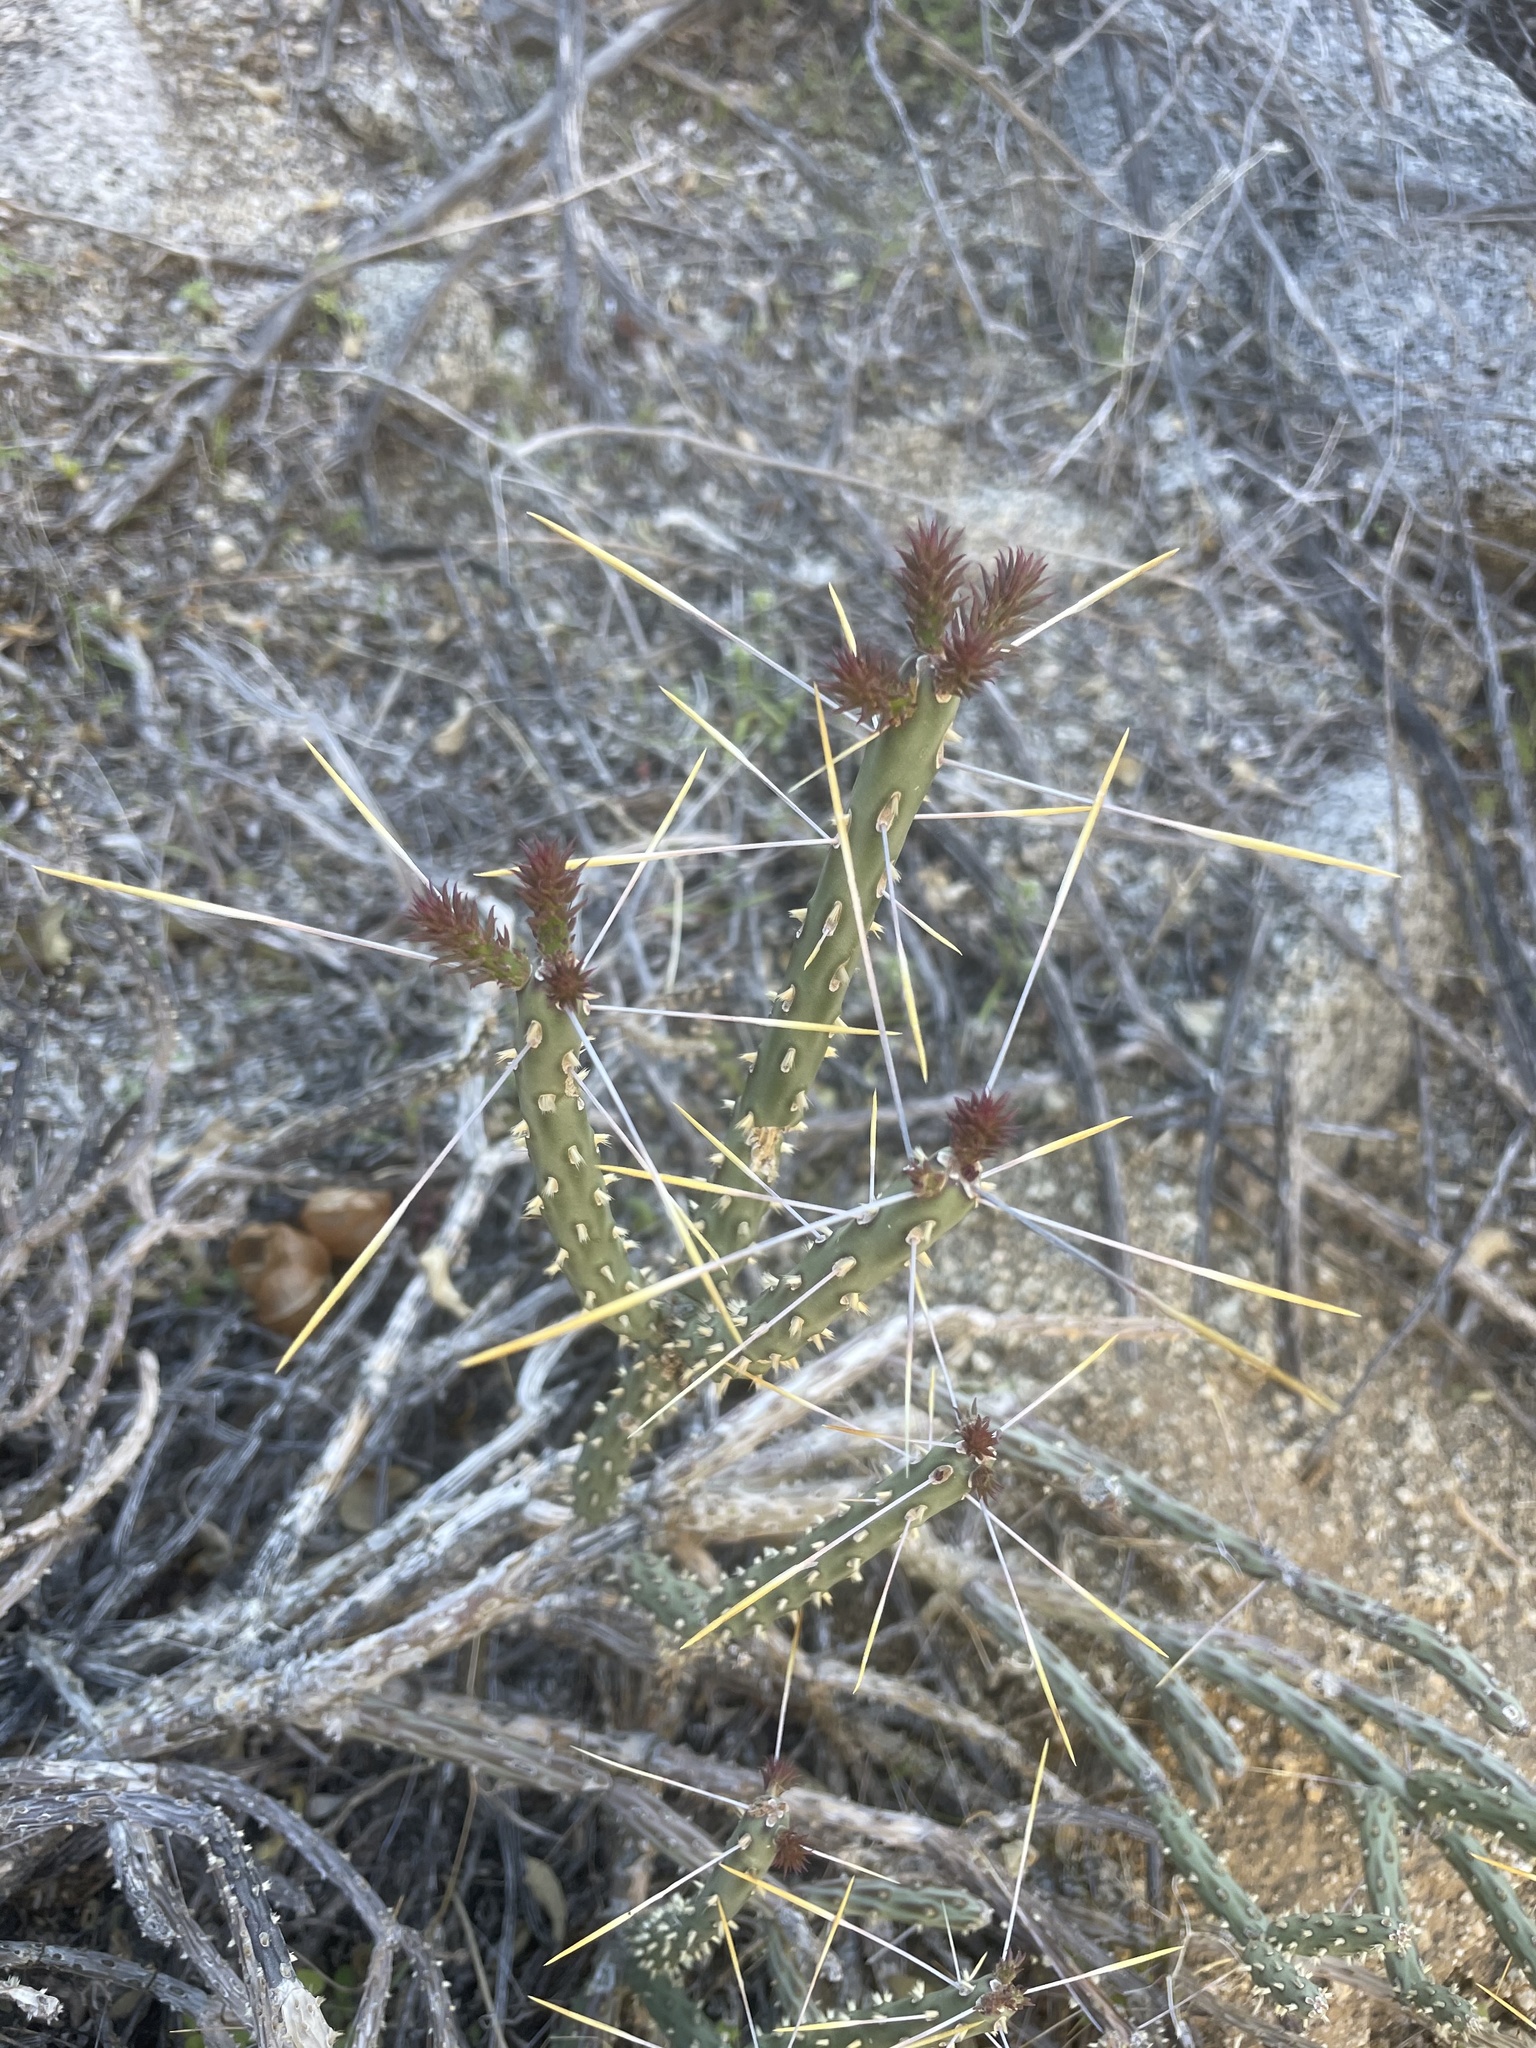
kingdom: Plantae
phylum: Tracheophyta
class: Magnoliopsida
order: Caryophyllales
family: Cactaceae
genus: Cylindropuntia
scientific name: Cylindropuntia tesajo
